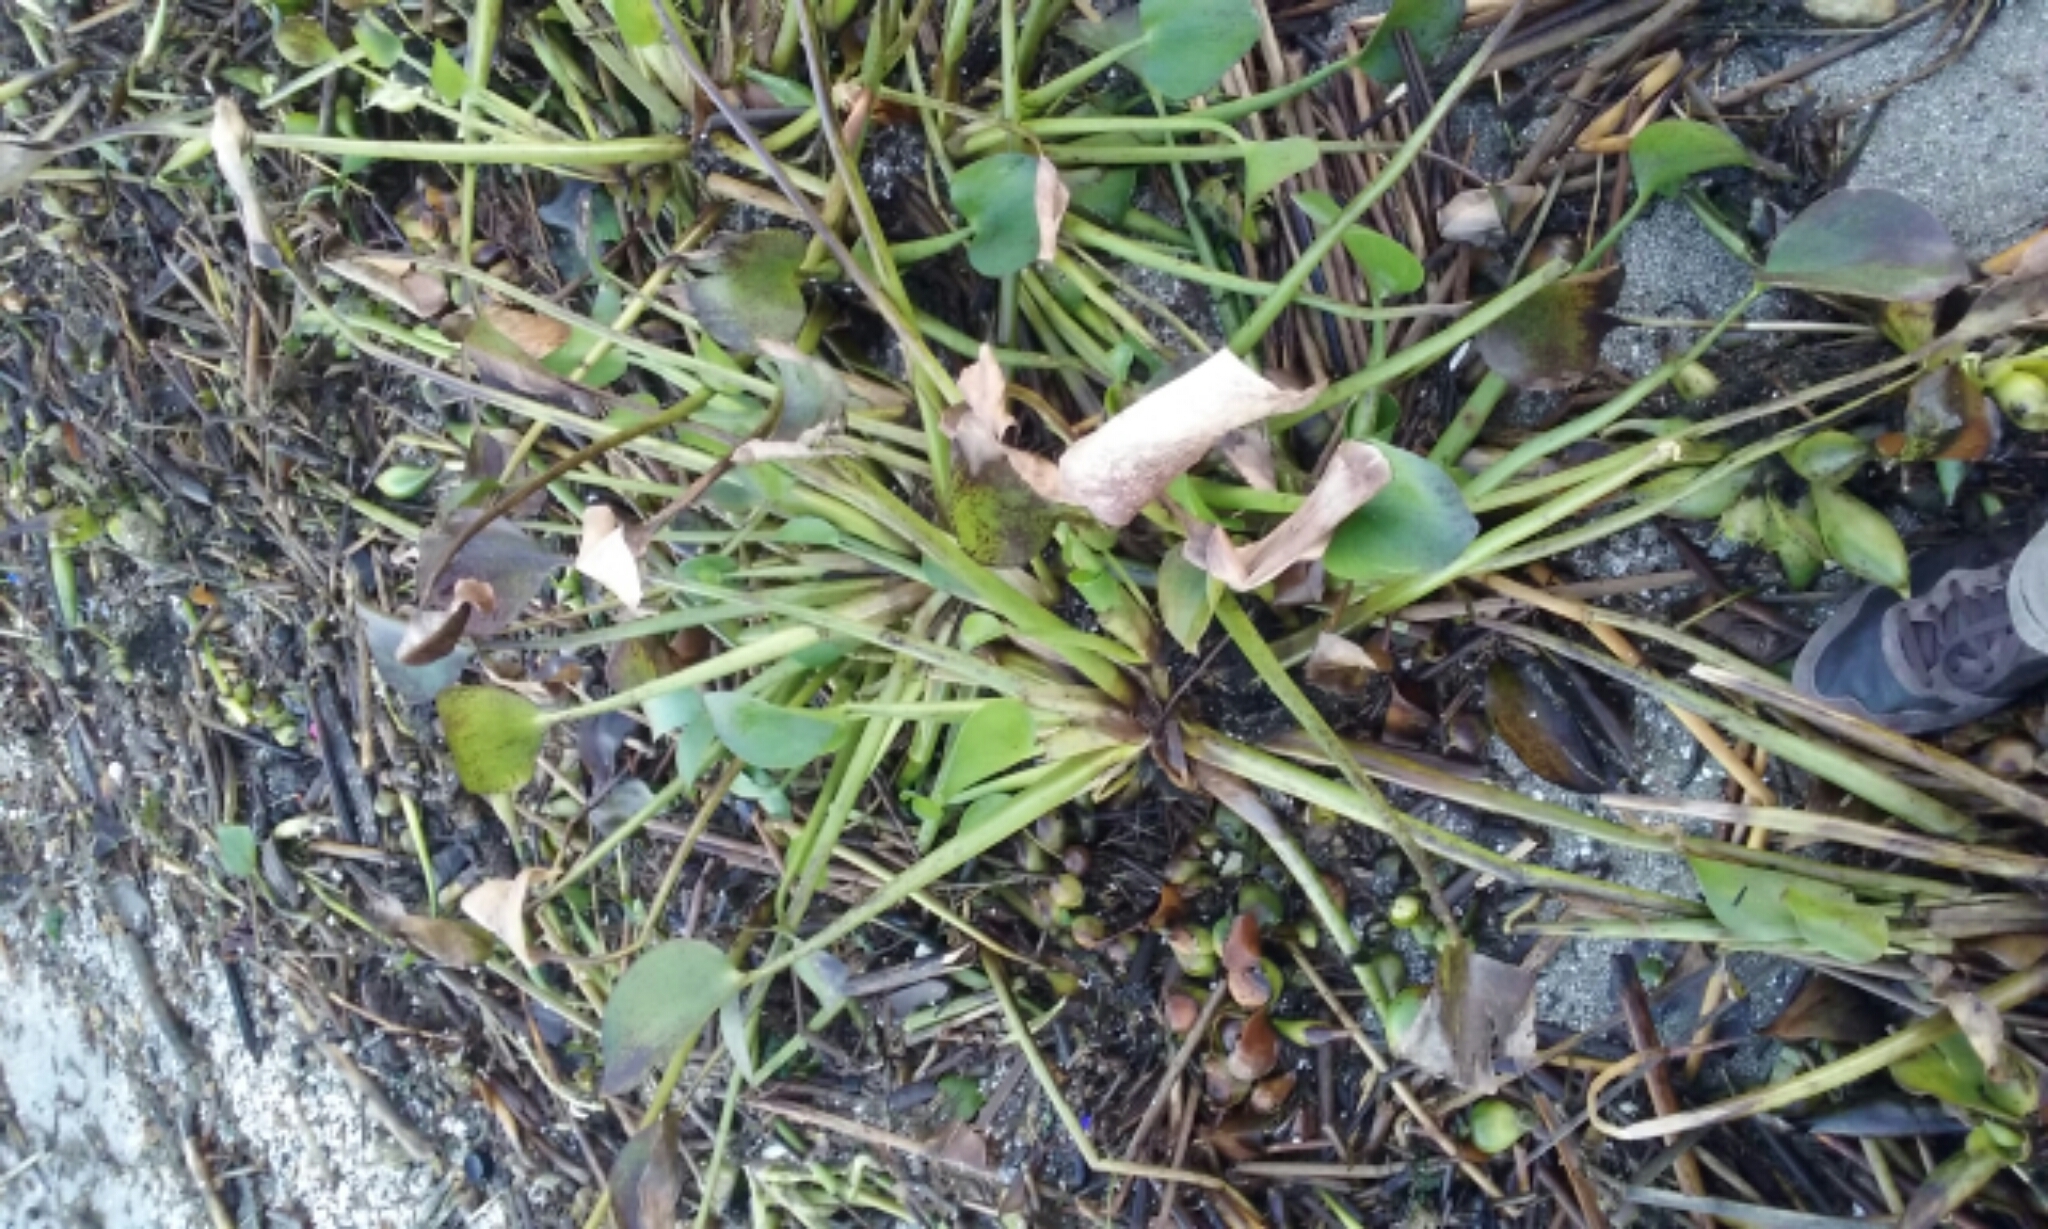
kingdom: Plantae
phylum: Tracheophyta
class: Liliopsida
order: Commelinales
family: Pontederiaceae
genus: Pontederia
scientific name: Pontederia crassipes
